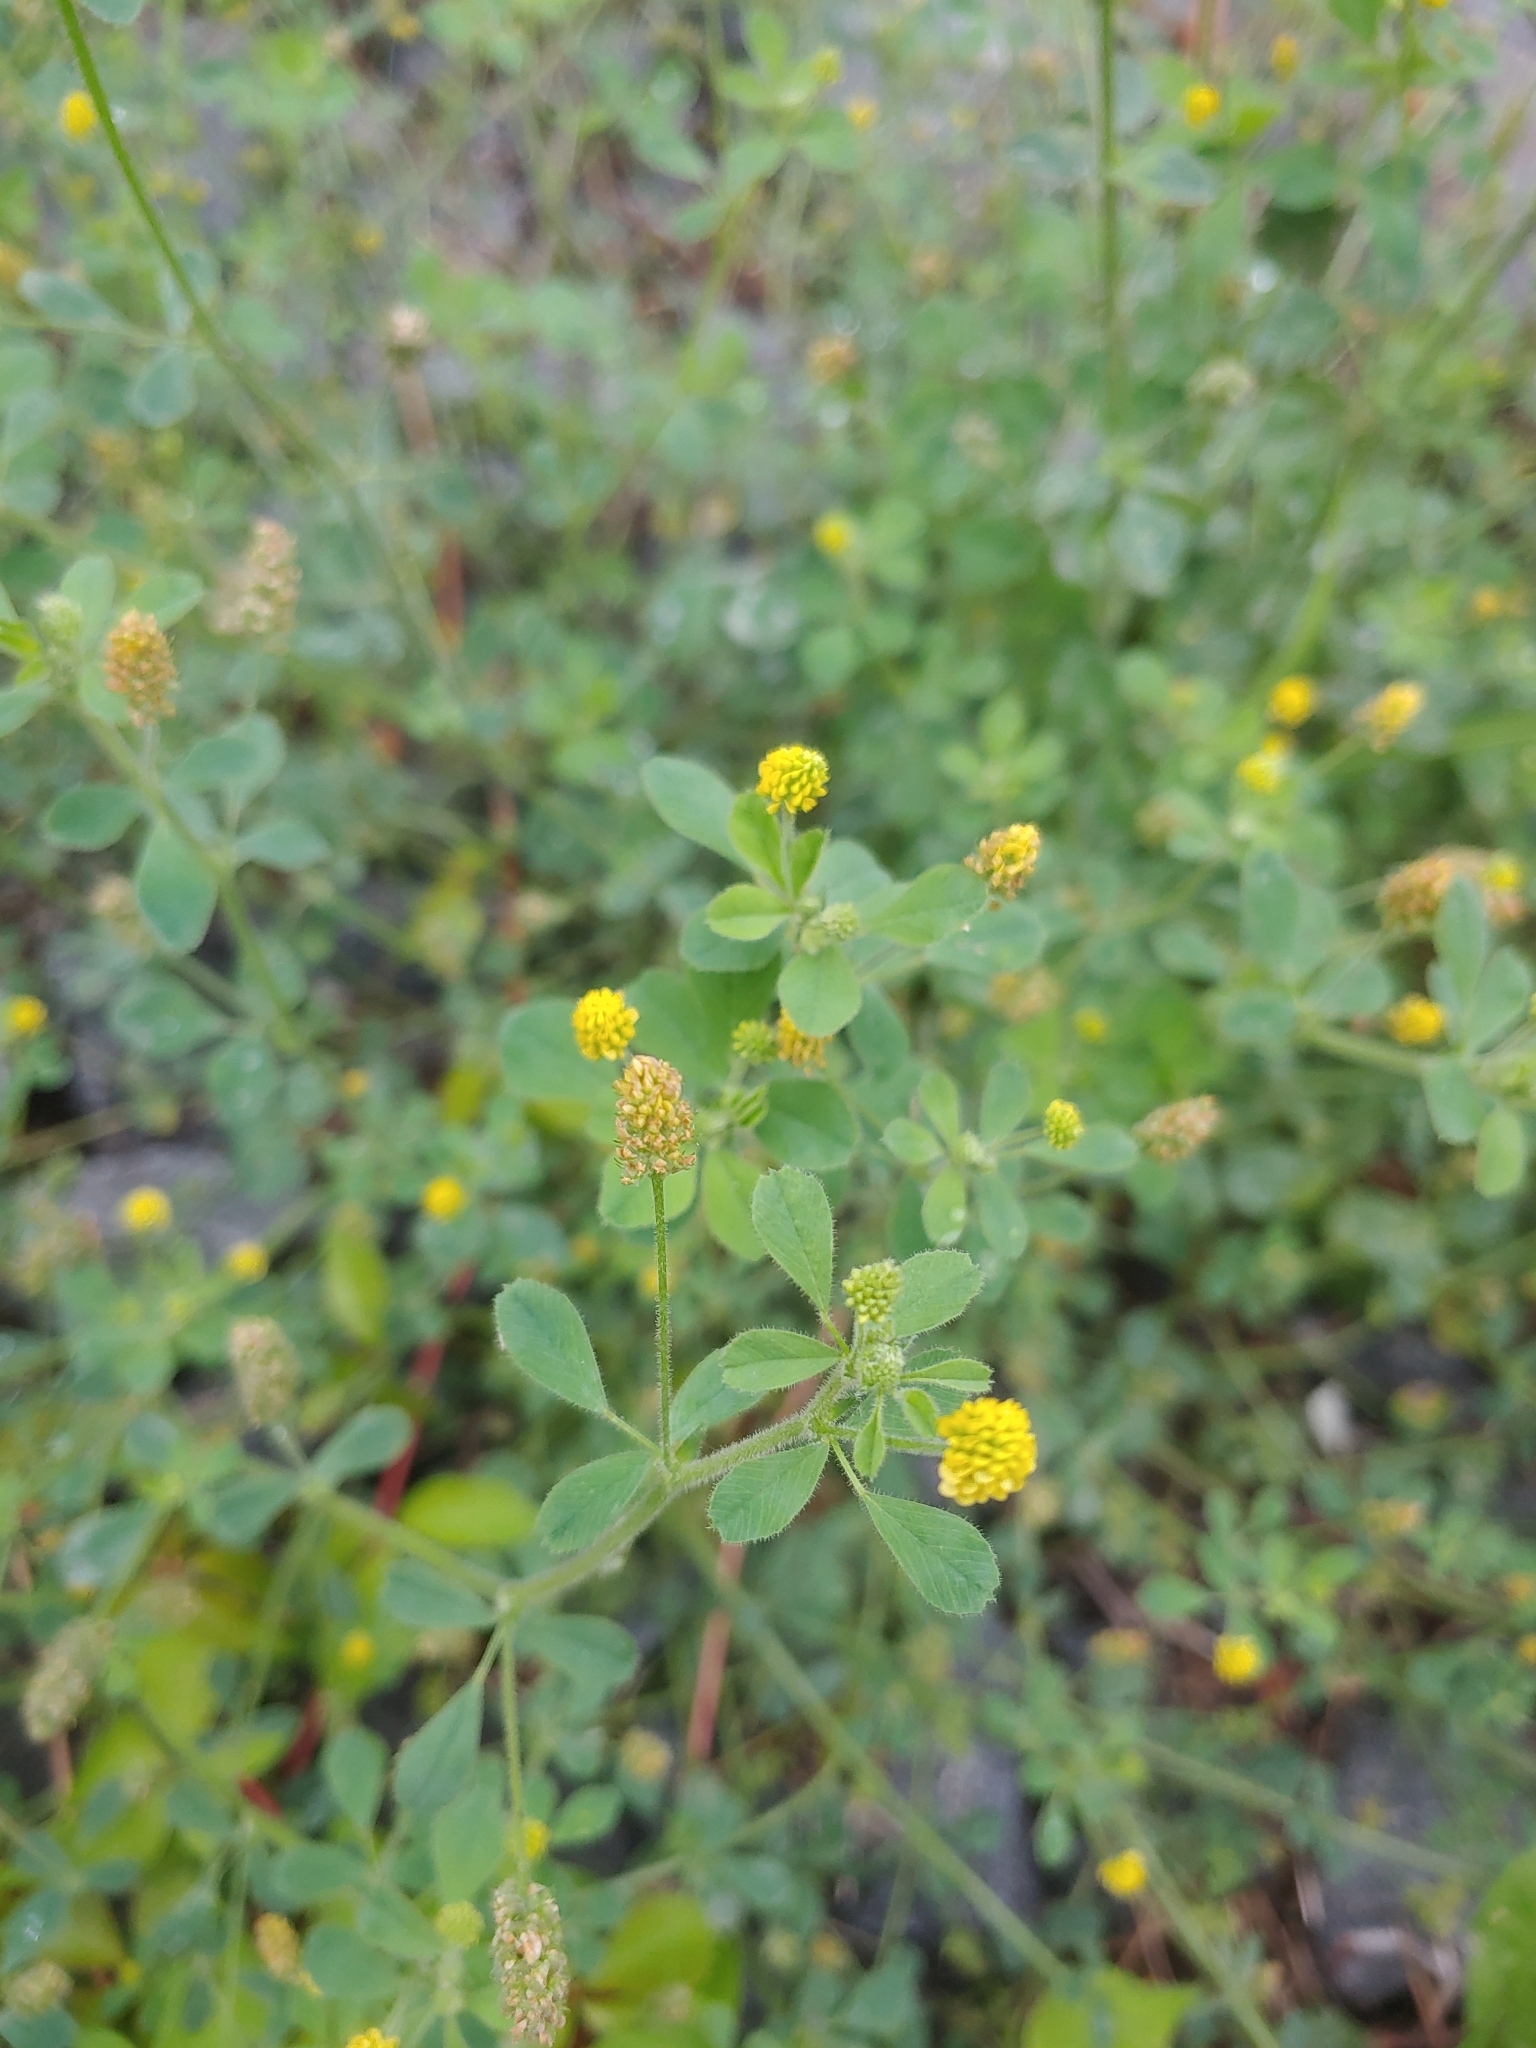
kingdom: Plantae
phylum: Tracheophyta
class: Magnoliopsida
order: Fabales
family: Fabaceae
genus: Medicago
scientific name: Medicago lupulina
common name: Black medick
